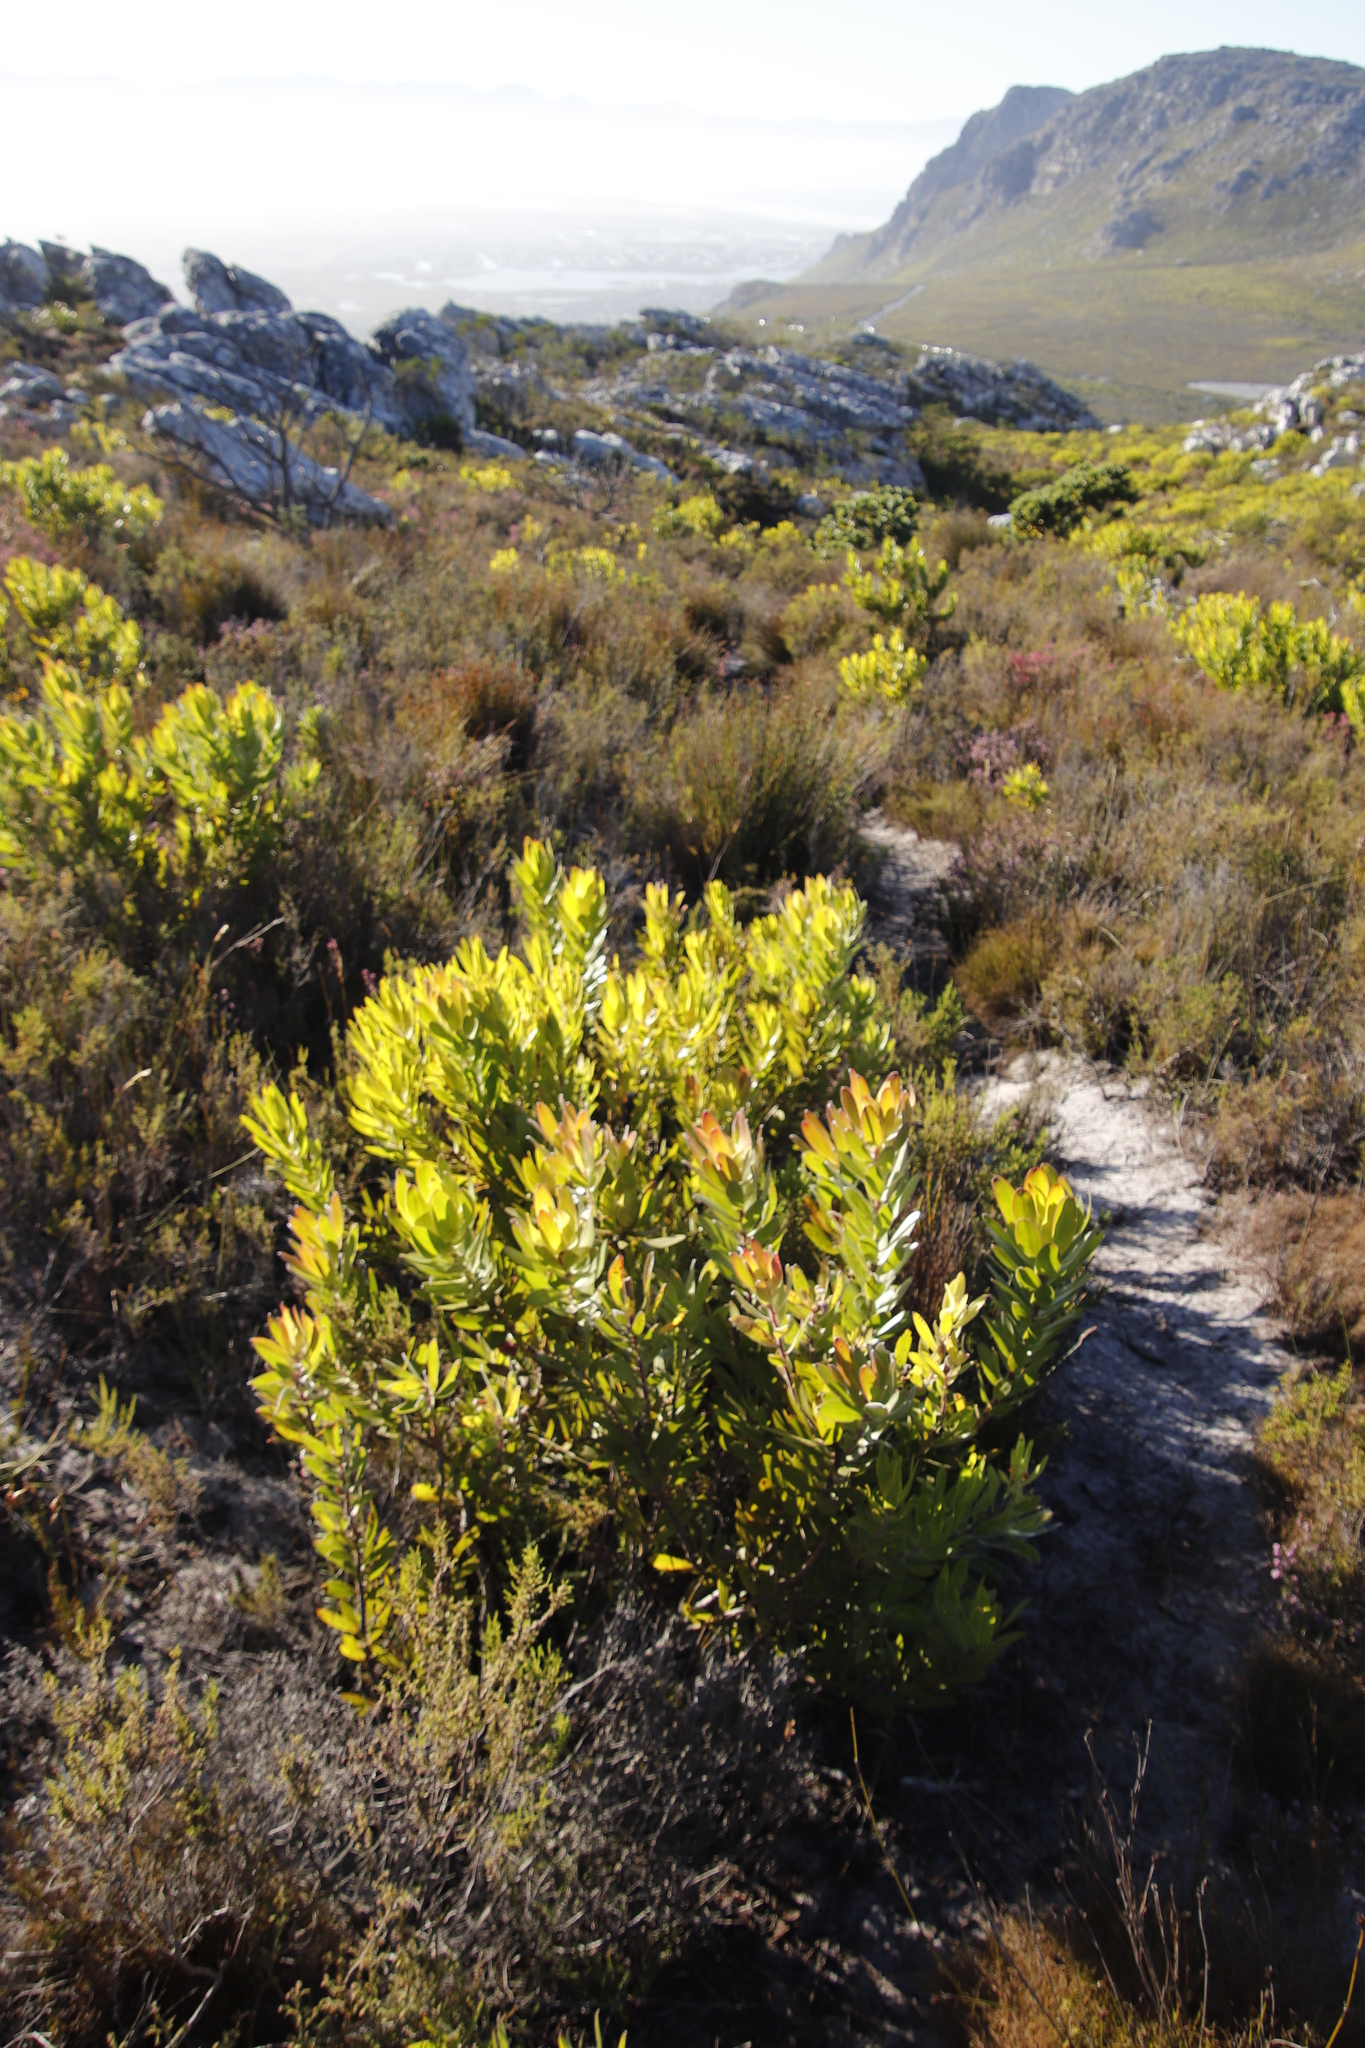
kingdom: Plantae
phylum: Tracheophyta
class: Magnoliopsida
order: Proteales
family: Proteaceae
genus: Leucadendron
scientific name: Leucadendron laureolum
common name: Golden sunshinebush
